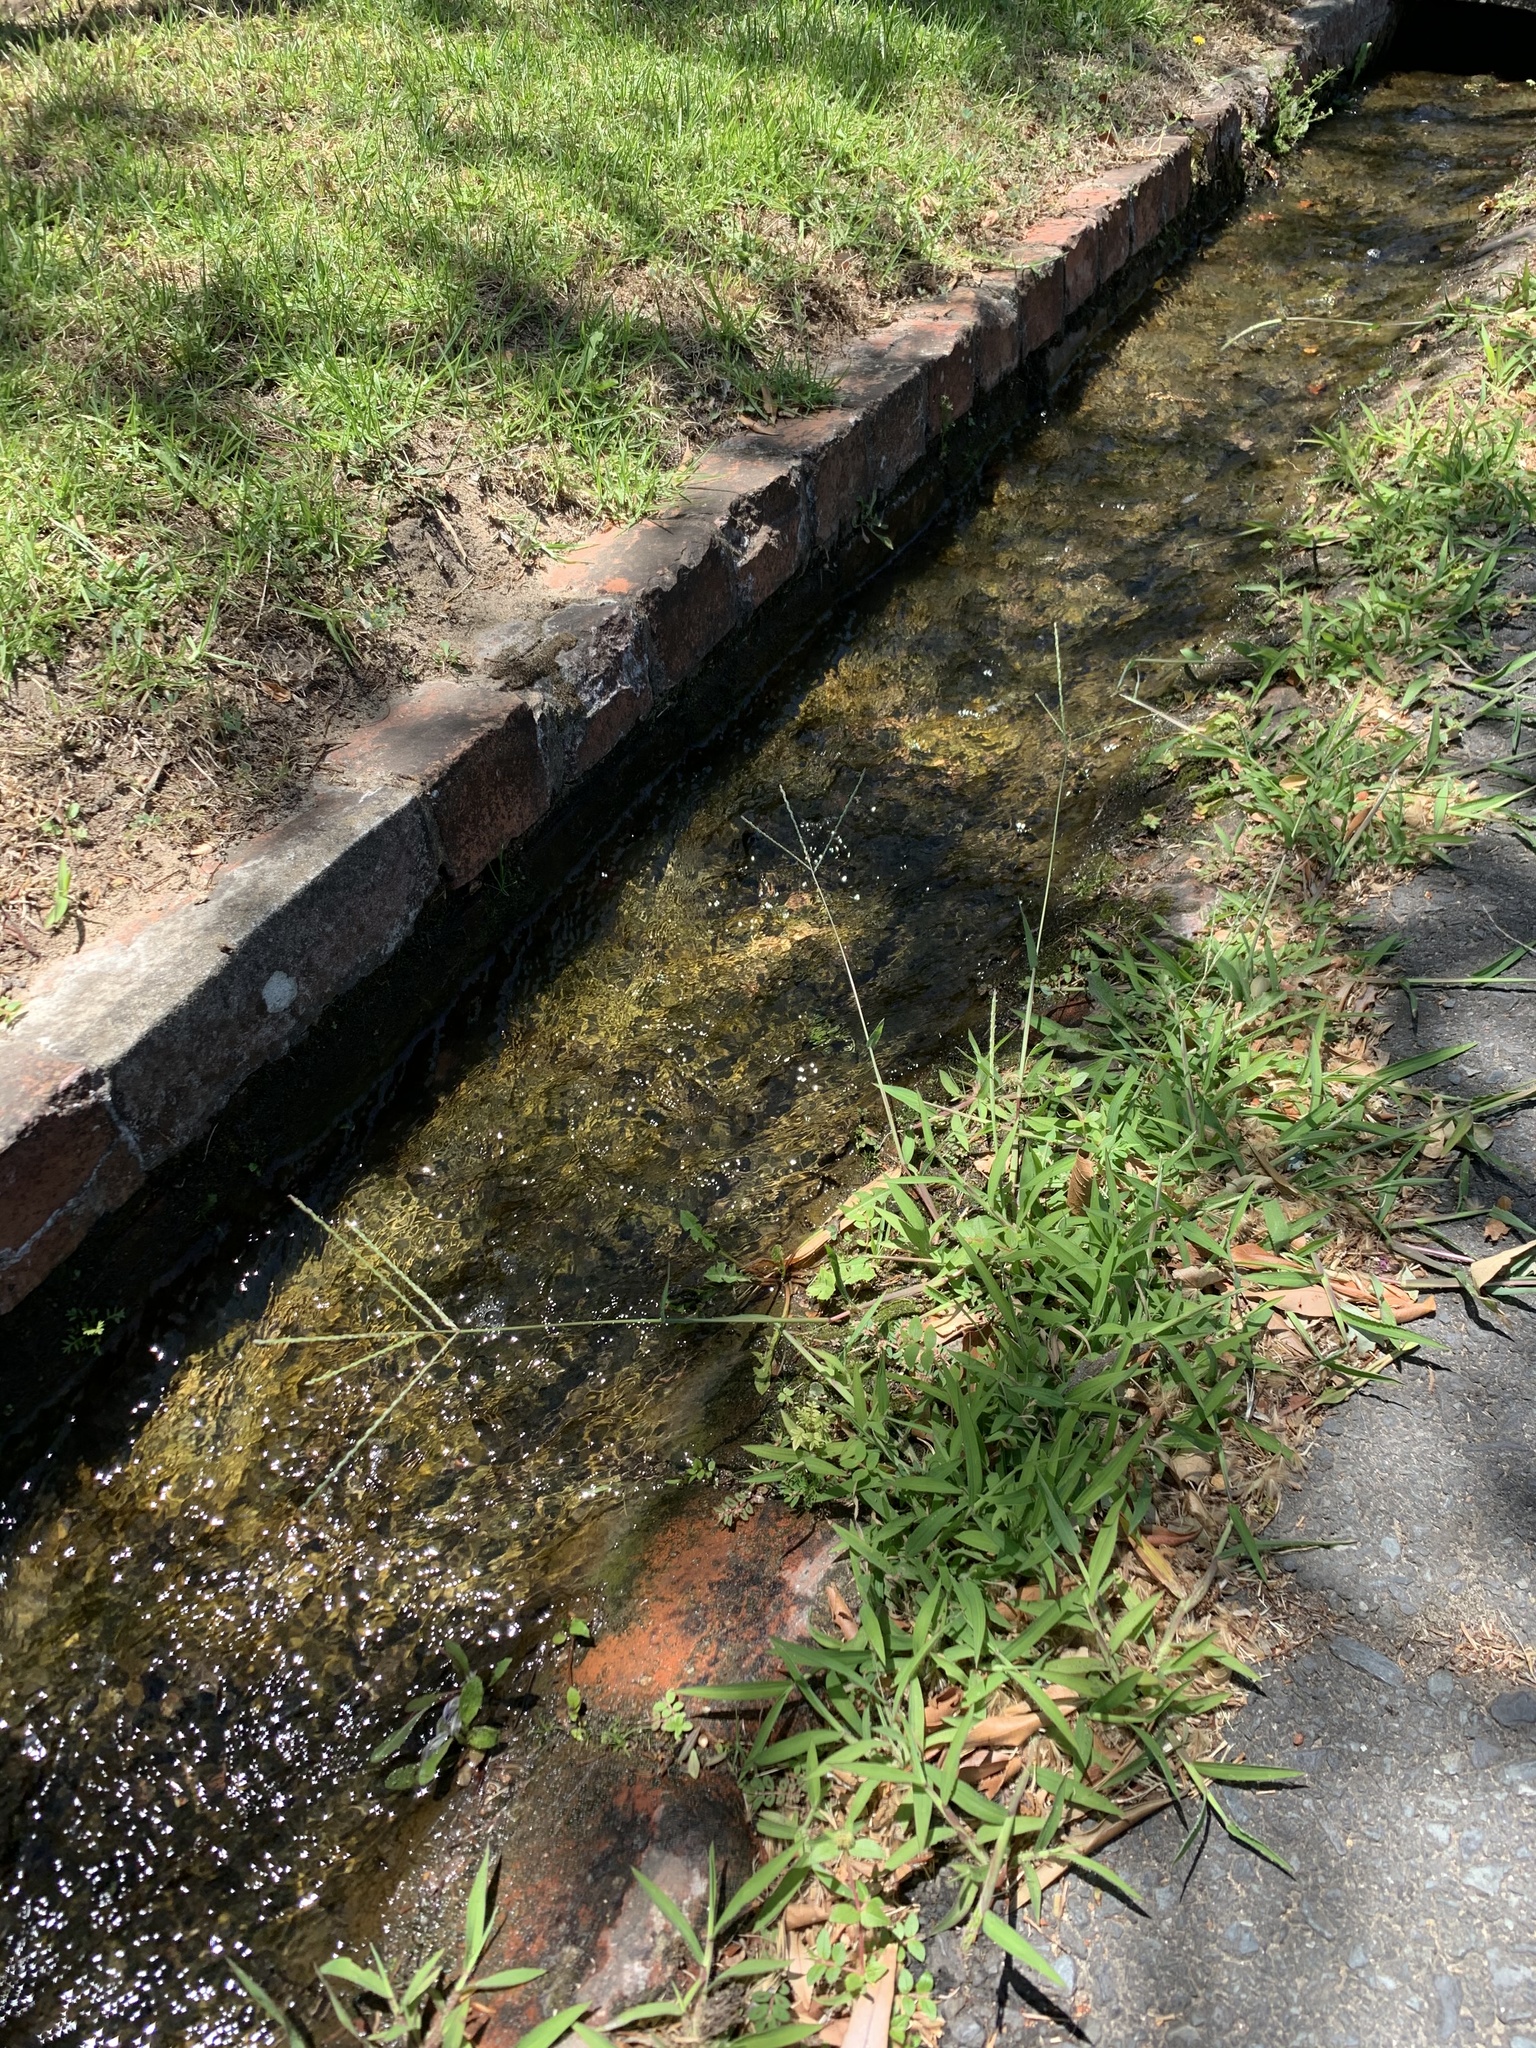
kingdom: Plantae
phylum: Tracheophyta
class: Liliopsida
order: Poales
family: Poaceae
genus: Digitaria
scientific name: Digitaria sanguinalis
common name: Hairy crabgrass
